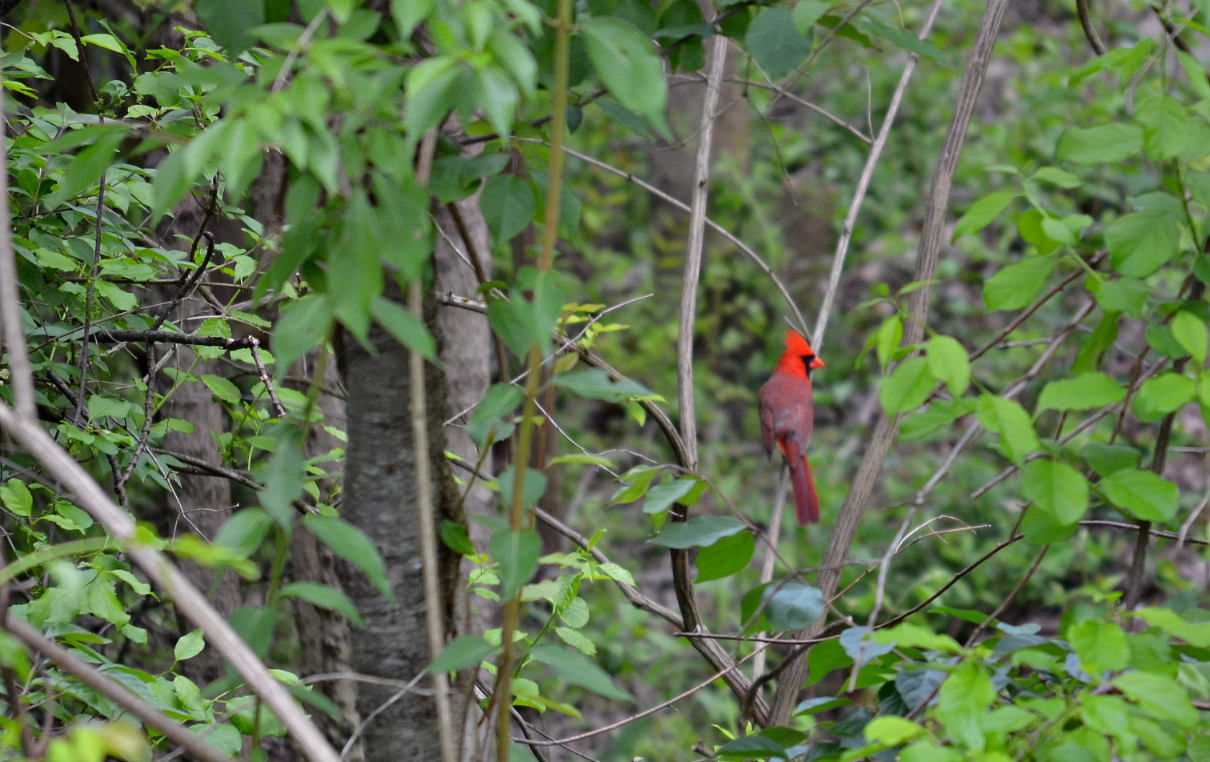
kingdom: Animalia
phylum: Chordata
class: Aves
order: Passeriformes
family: Cardinalidae
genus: Cardinalis
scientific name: Cardinalis cardinalis
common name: Northern cardinal
